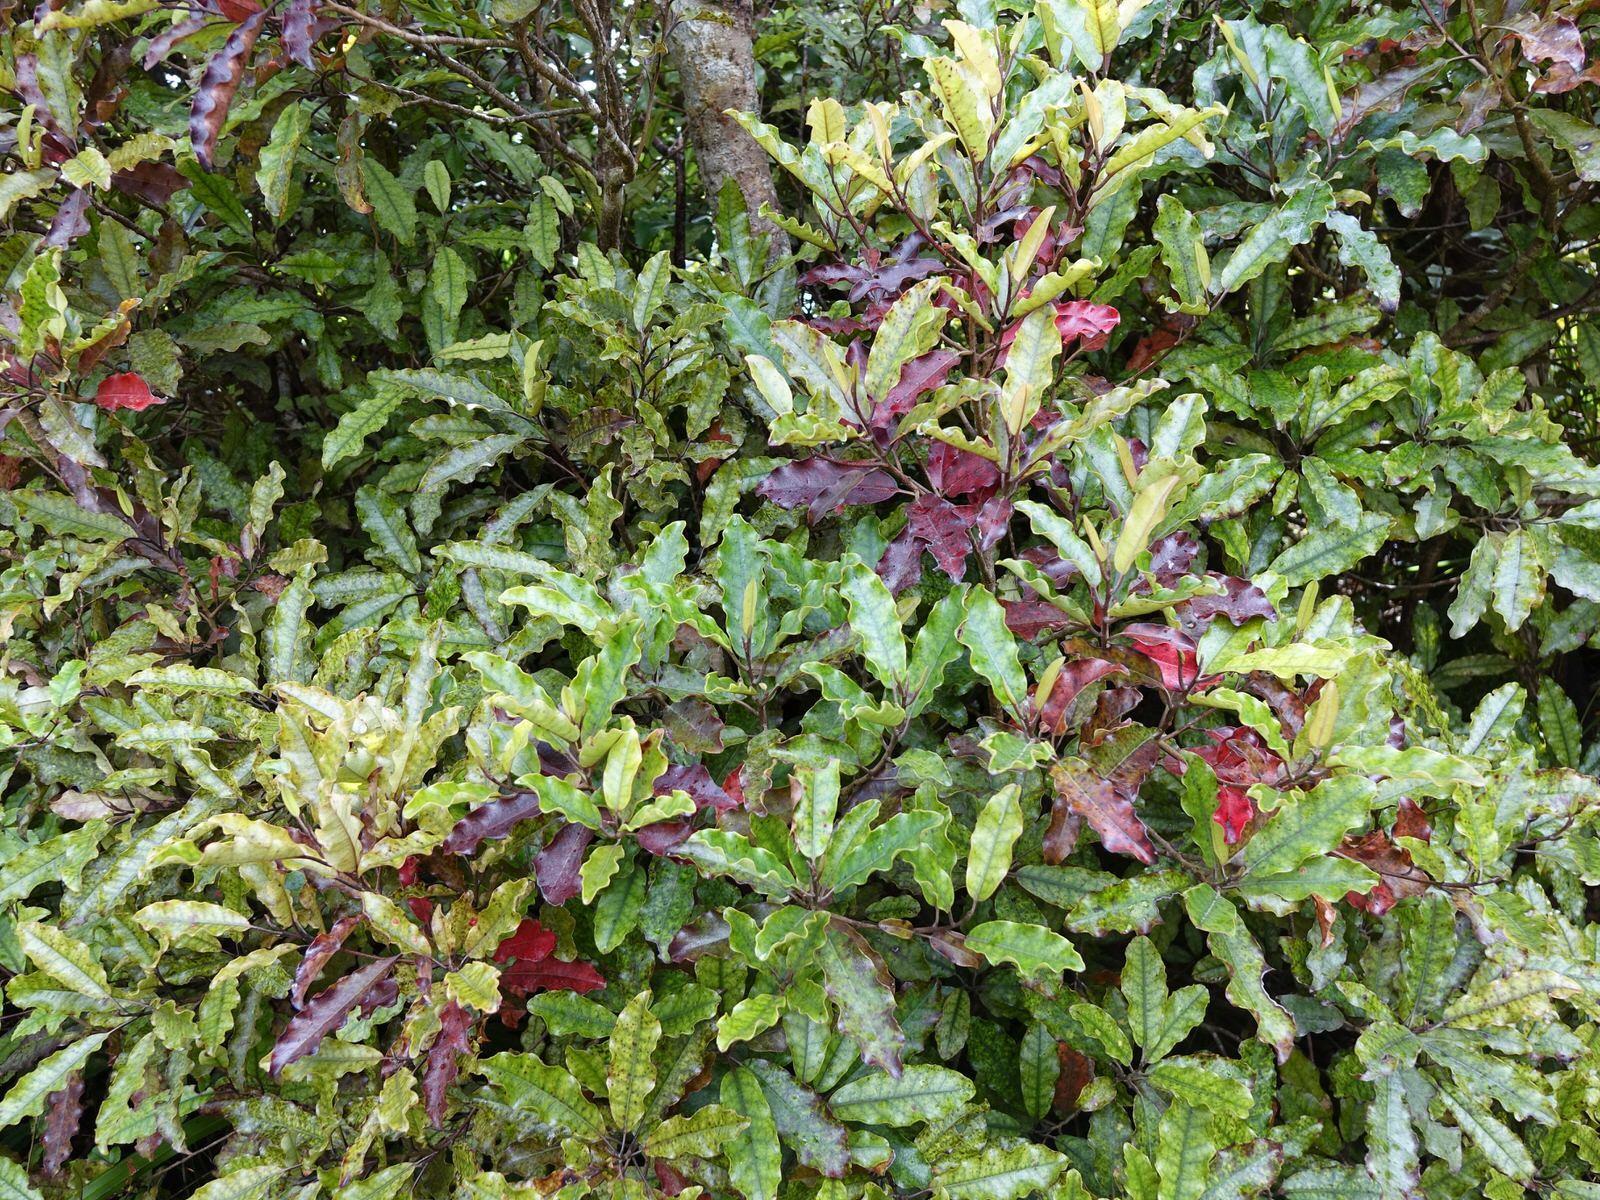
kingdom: Plantae
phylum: Tracheophyta
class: Magnoliopsida
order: Paracryphiales
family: Paracryphiaceae
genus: Quintinia
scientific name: Quintinia serrata
